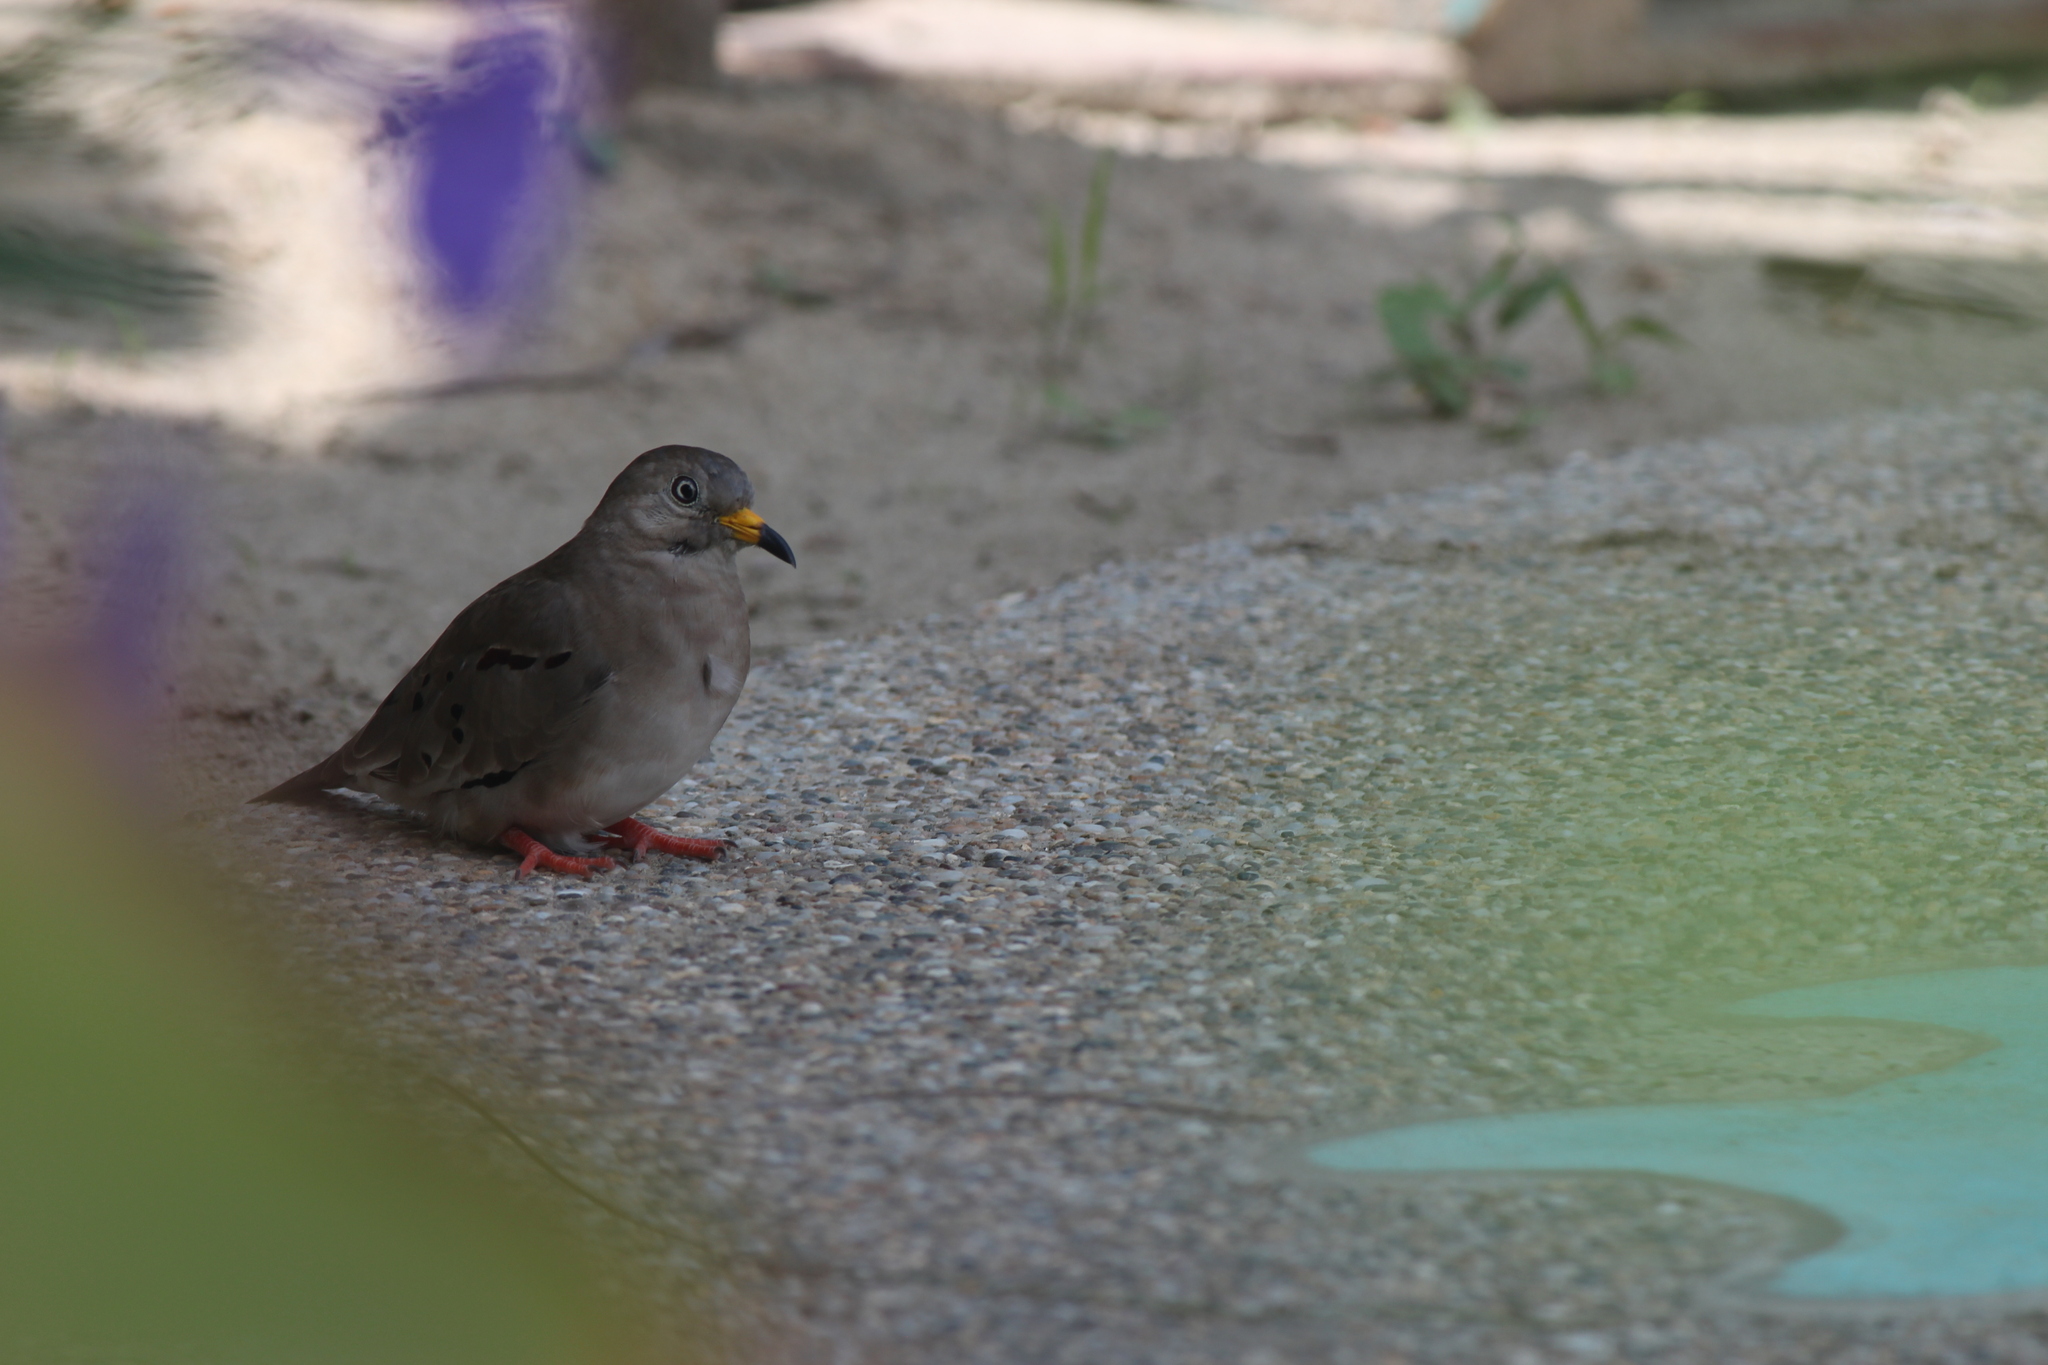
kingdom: Animalia
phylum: Chordata
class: Aves
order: Columbiformes
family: Columbidae
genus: Columbina
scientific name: Columbina cruziana
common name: Croaking ground dove
